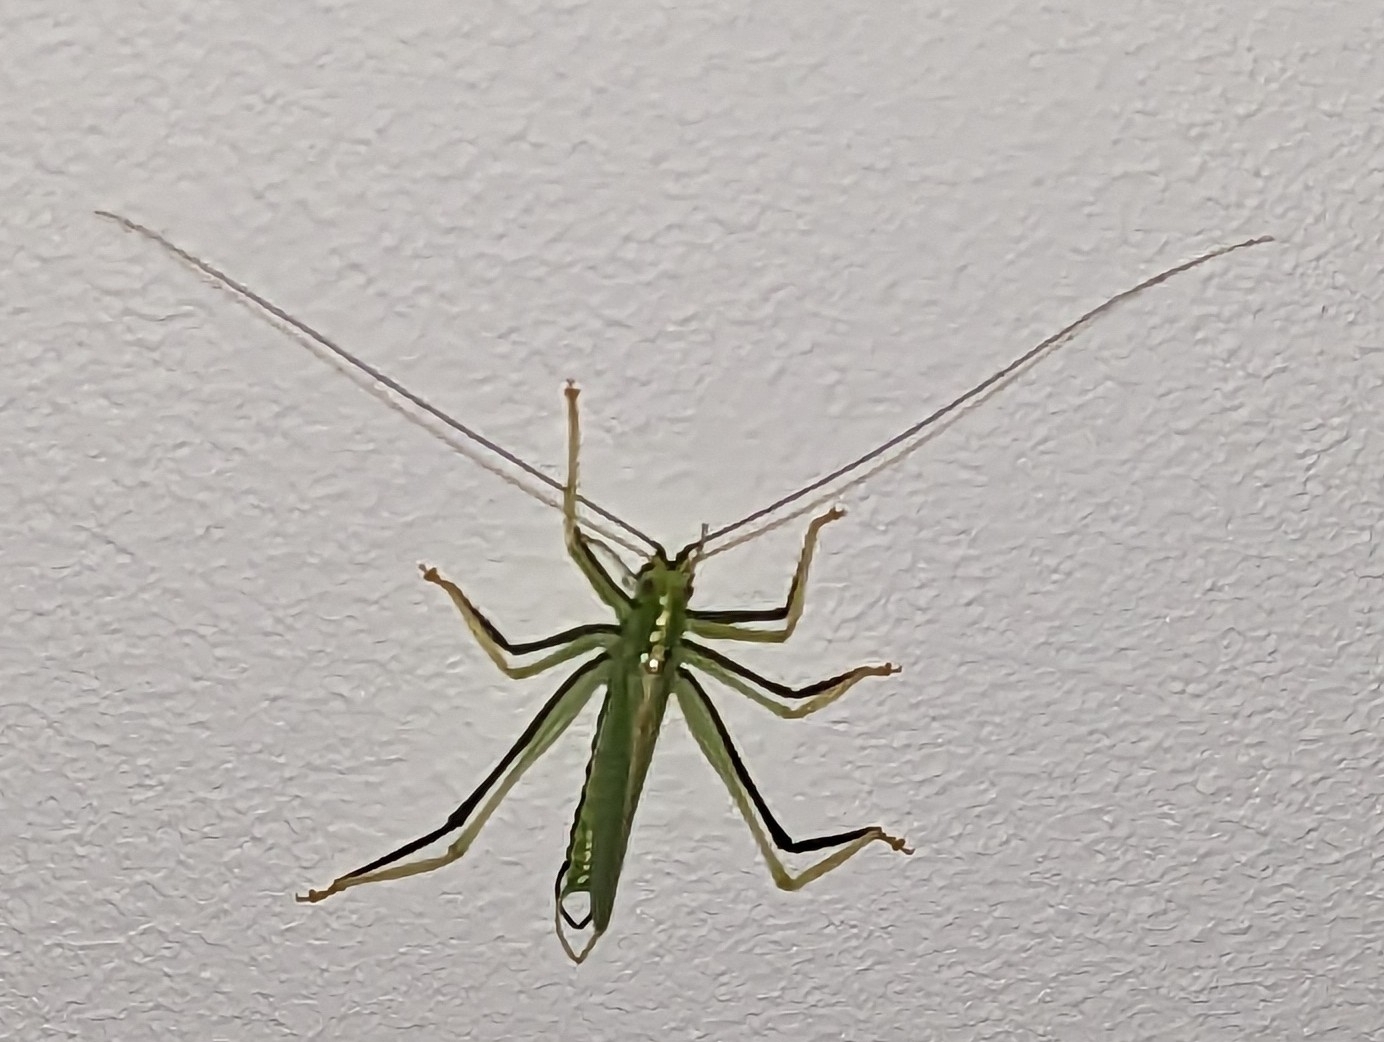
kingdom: Animalia
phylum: Arthropoda
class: Insecta
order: Orthoptera
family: Tettigoniidae
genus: Meconema
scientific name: Meconema thalassinum
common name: Oak bush-cricket
